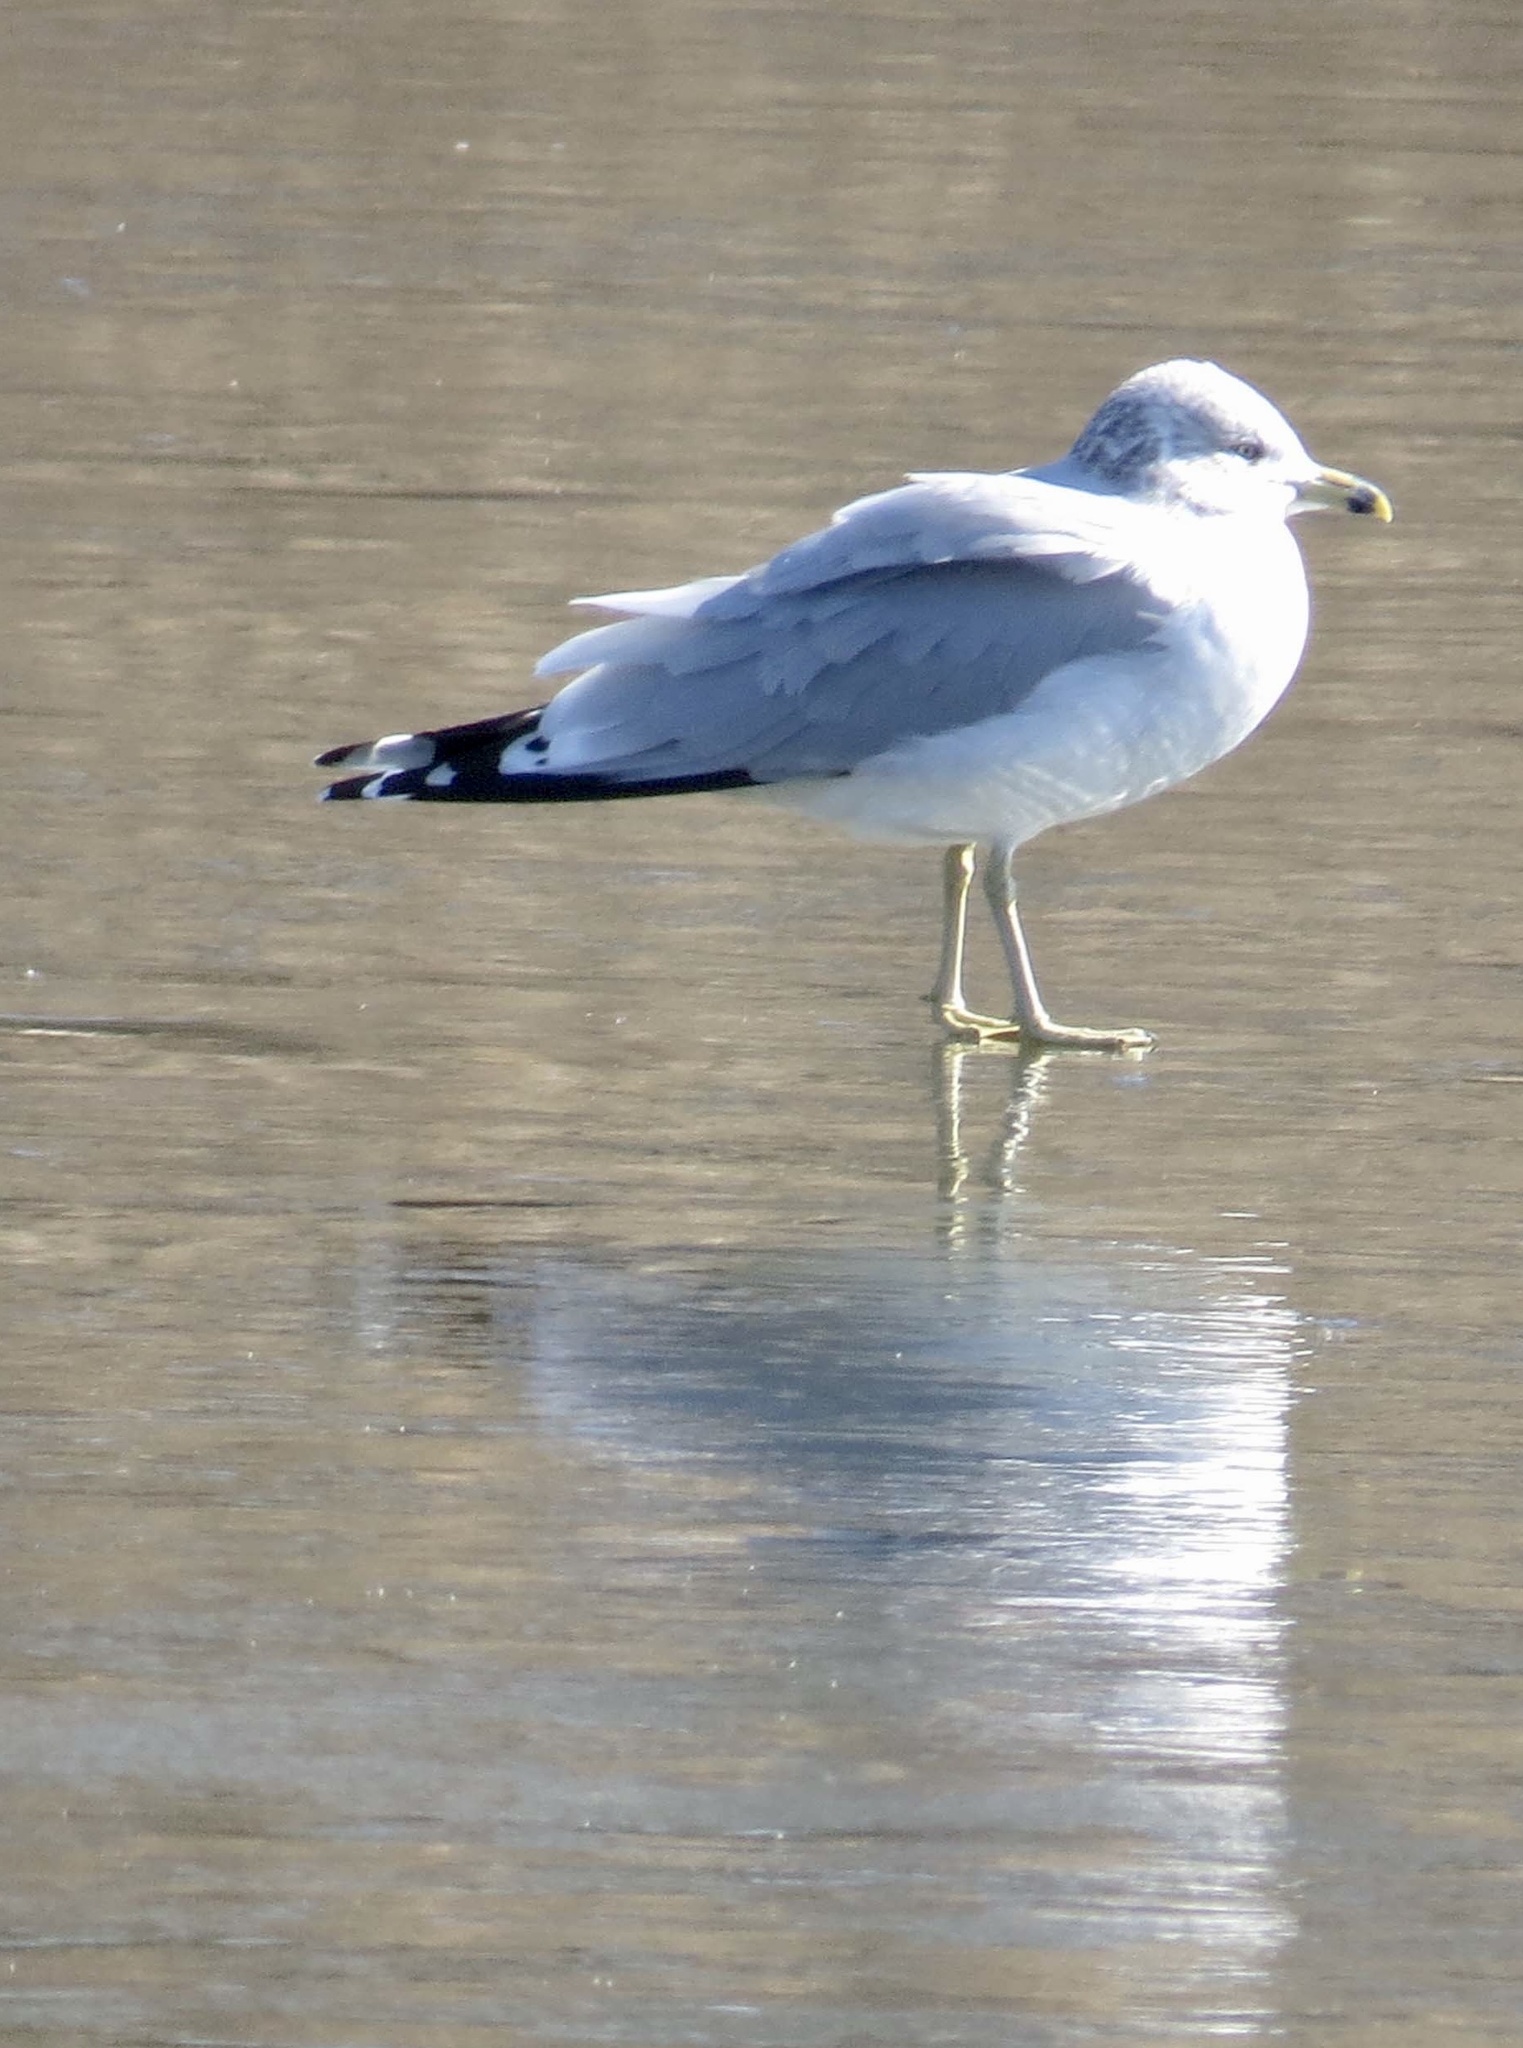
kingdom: Animalia
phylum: Chordata
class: Aves
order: Charadriiformes
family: Laridae
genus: Larus
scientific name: Larus delawarensis
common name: Ring-billed gull
